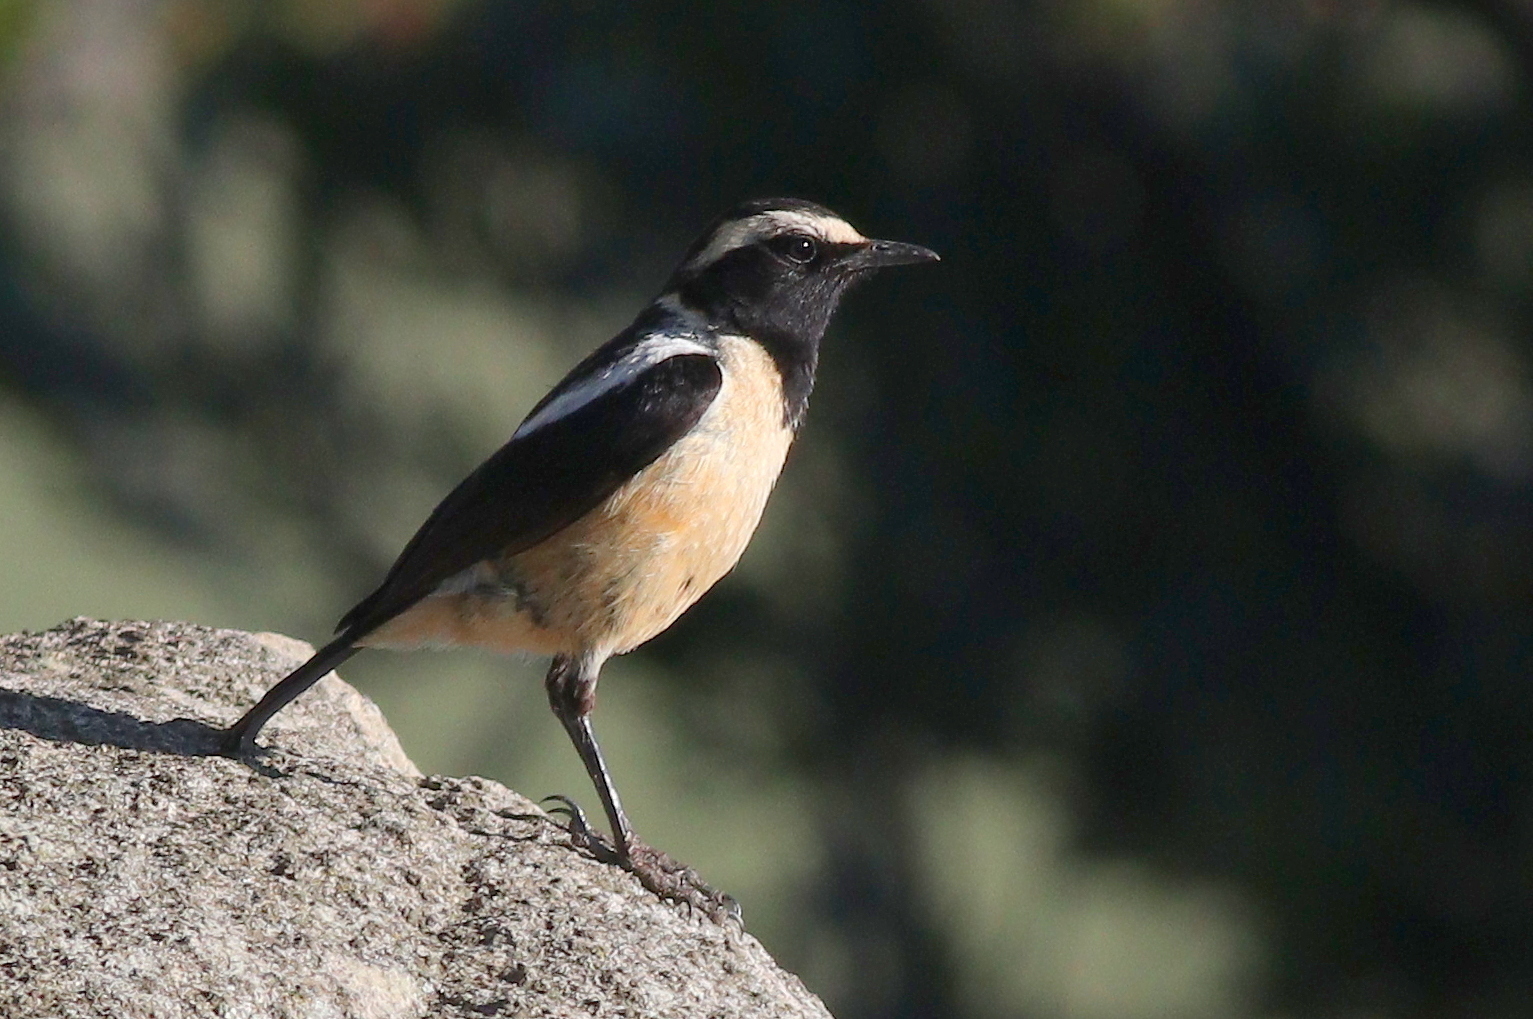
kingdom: Animalia
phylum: Chordata
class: Aves
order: Passeriformes
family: Muscicapidae
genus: Campicoloides
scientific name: Campicoloides bifasciatus
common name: Buff-streaked chat
